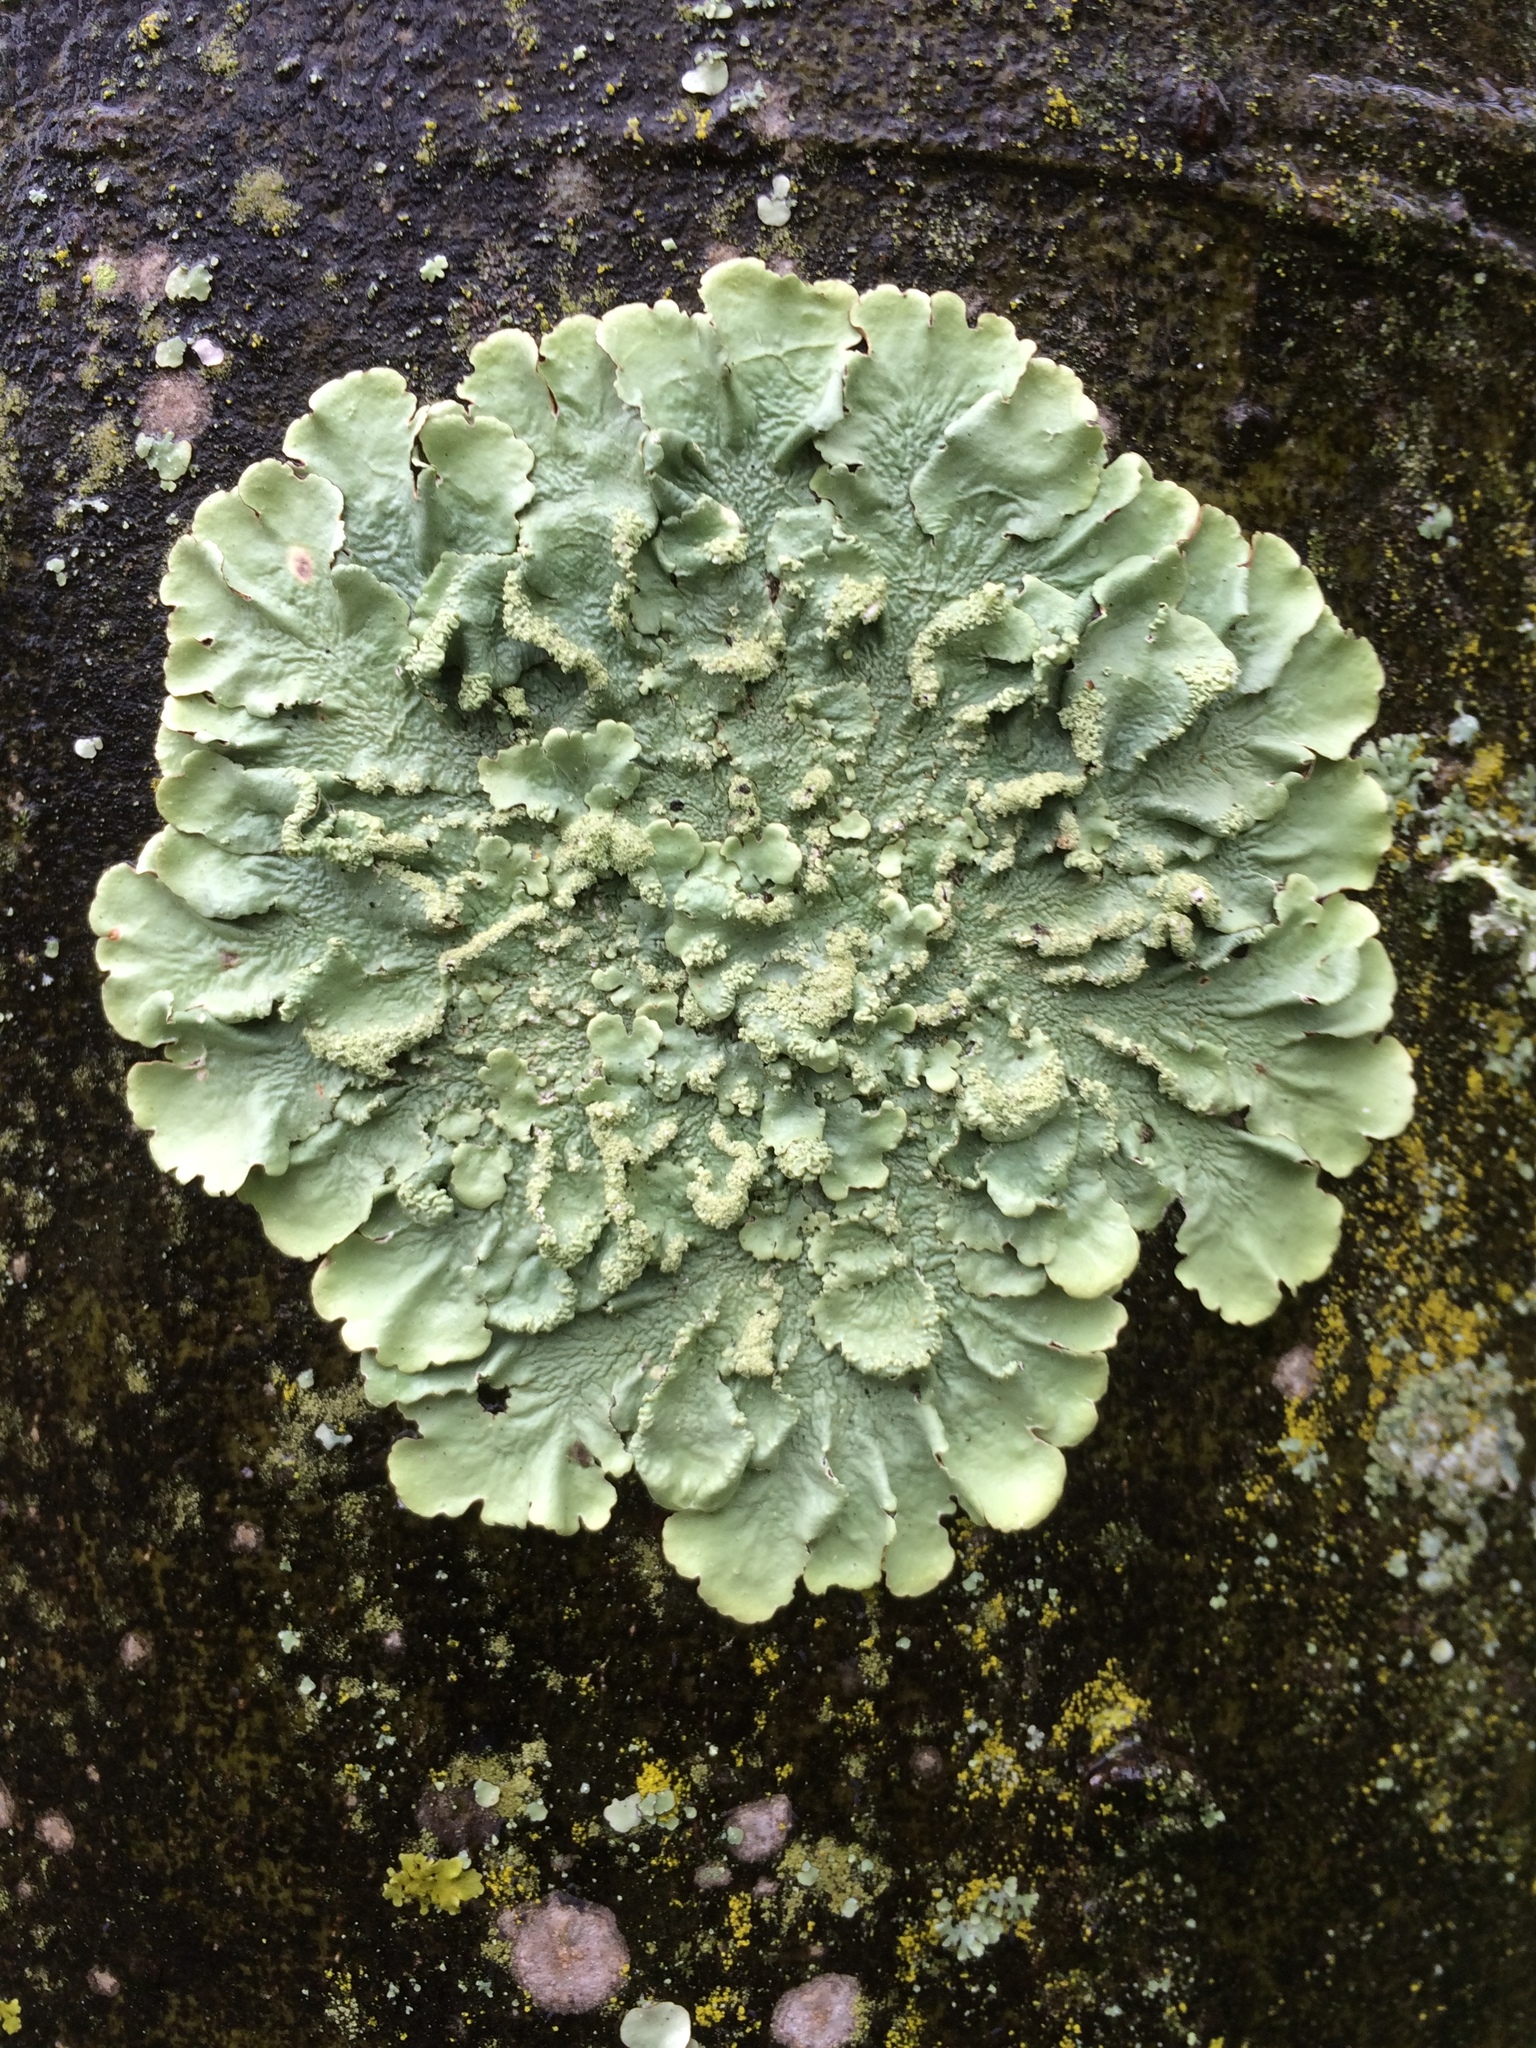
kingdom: Fungi
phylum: Ascomycota
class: Lecanoromycetes
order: Lecanorales
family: Parmeliaceae
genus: Flavoparmelia
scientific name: Flavoparmelia caperata
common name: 40-mile per hour lichen
